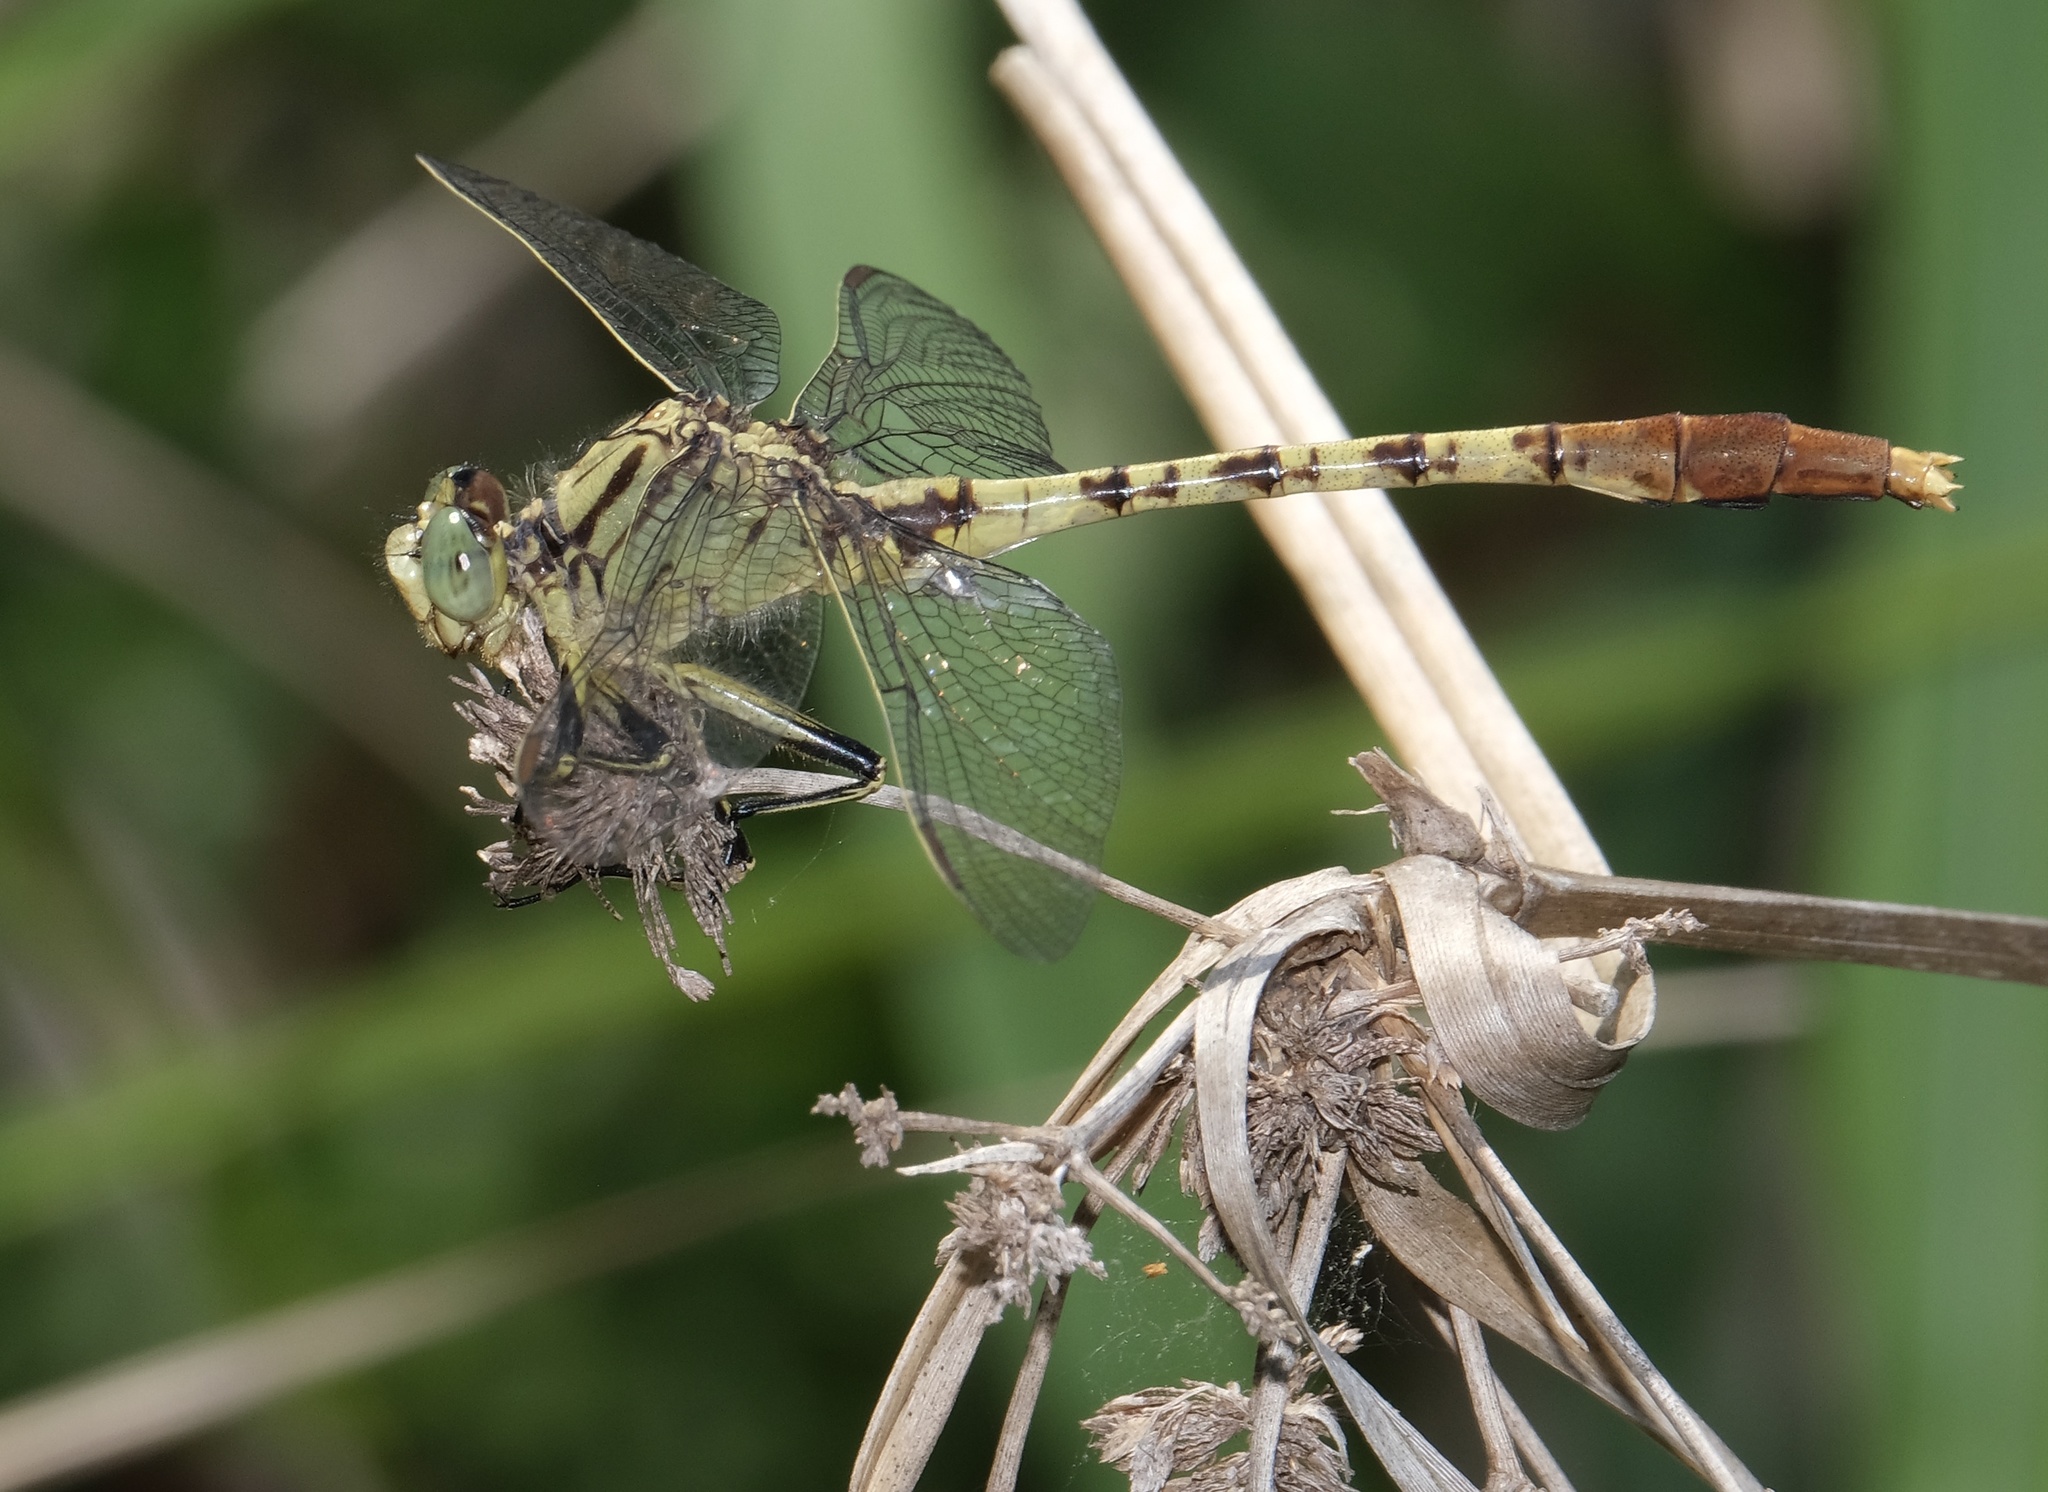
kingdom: Animalia
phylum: Arthropoda
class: Insecta
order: Odonata
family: Gomphidae
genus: Arigomphus
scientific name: Arigomphus submedianus
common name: Jade clubtail
